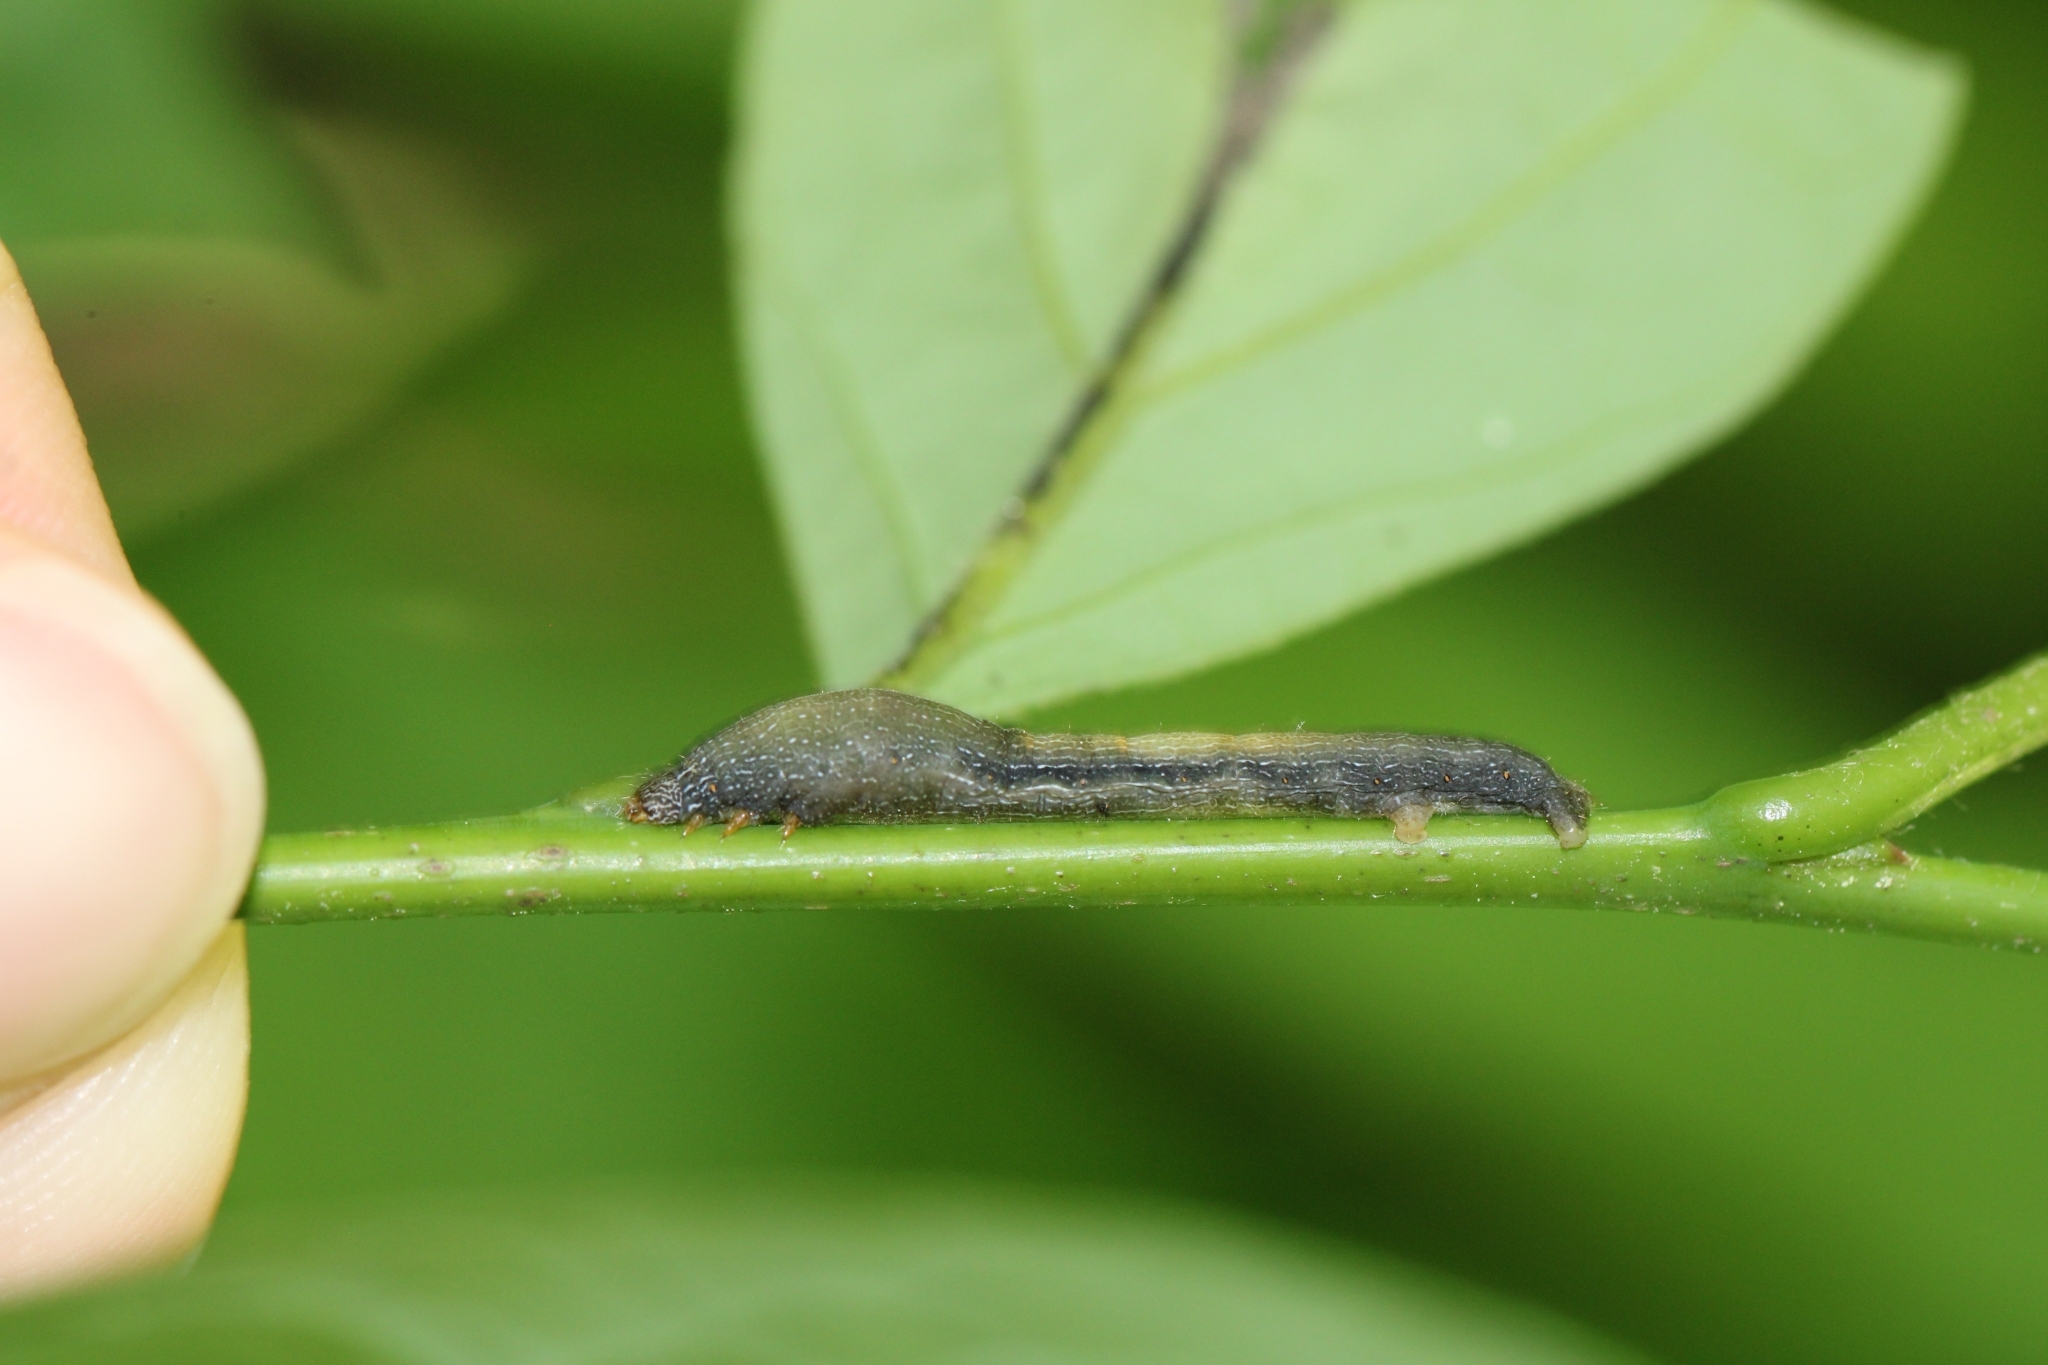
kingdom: Animalia
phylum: Arthropoda
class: Insecta
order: Lepidoptera
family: Geometridae
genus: Epimecis
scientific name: Epimecis hortaria
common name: Tulip-tree beauty
